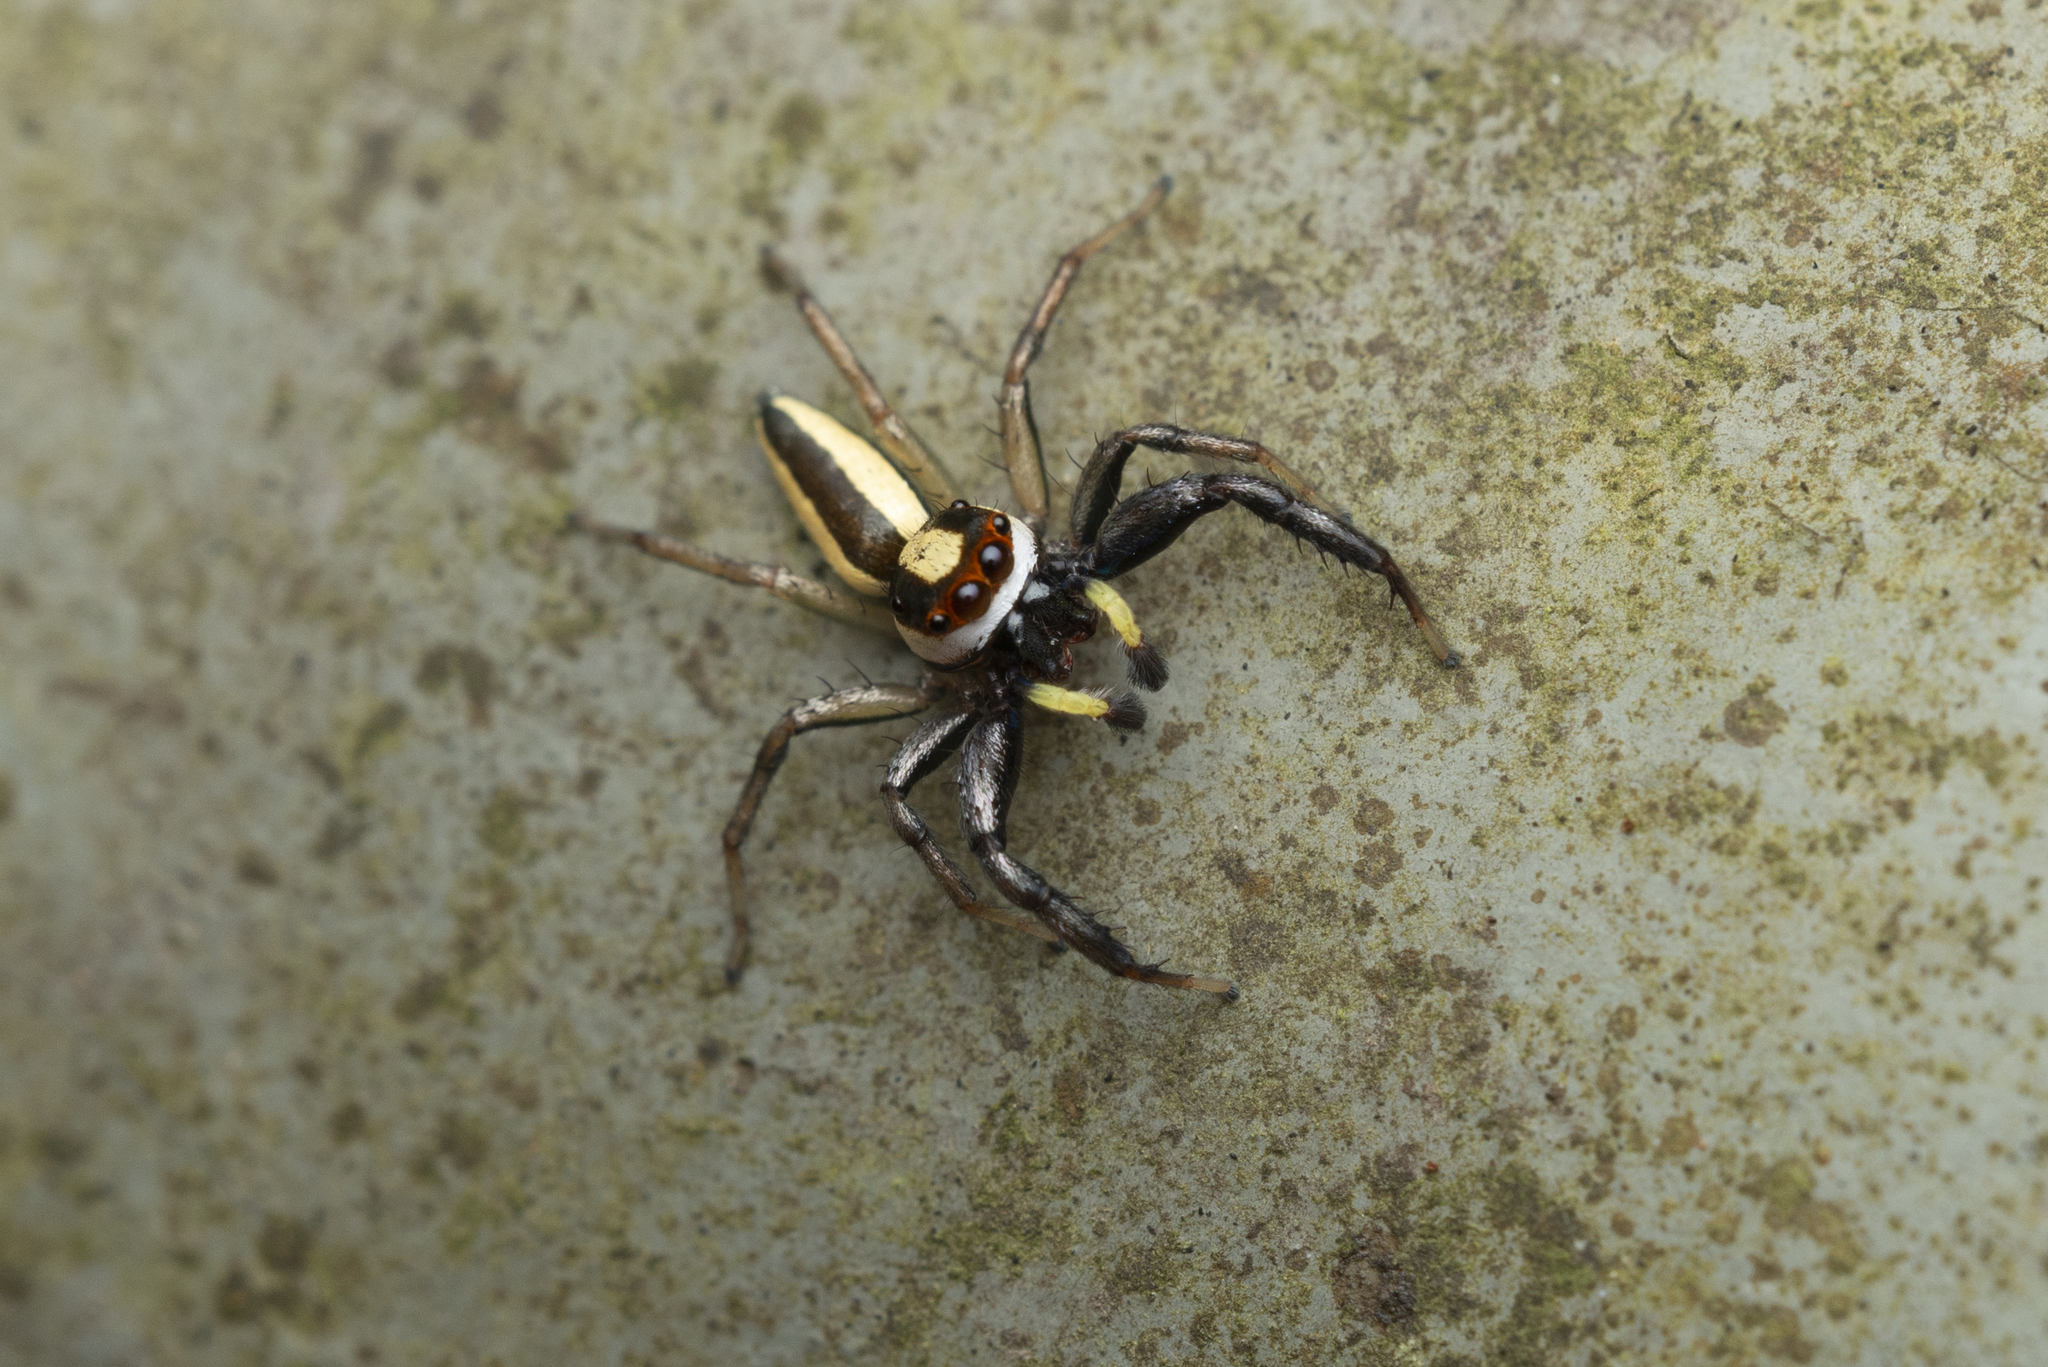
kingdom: Animalia
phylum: Arthropoda
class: Arachnida
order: Araneae
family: Salticidae
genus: Epocilla
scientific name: Epocilla blairei
